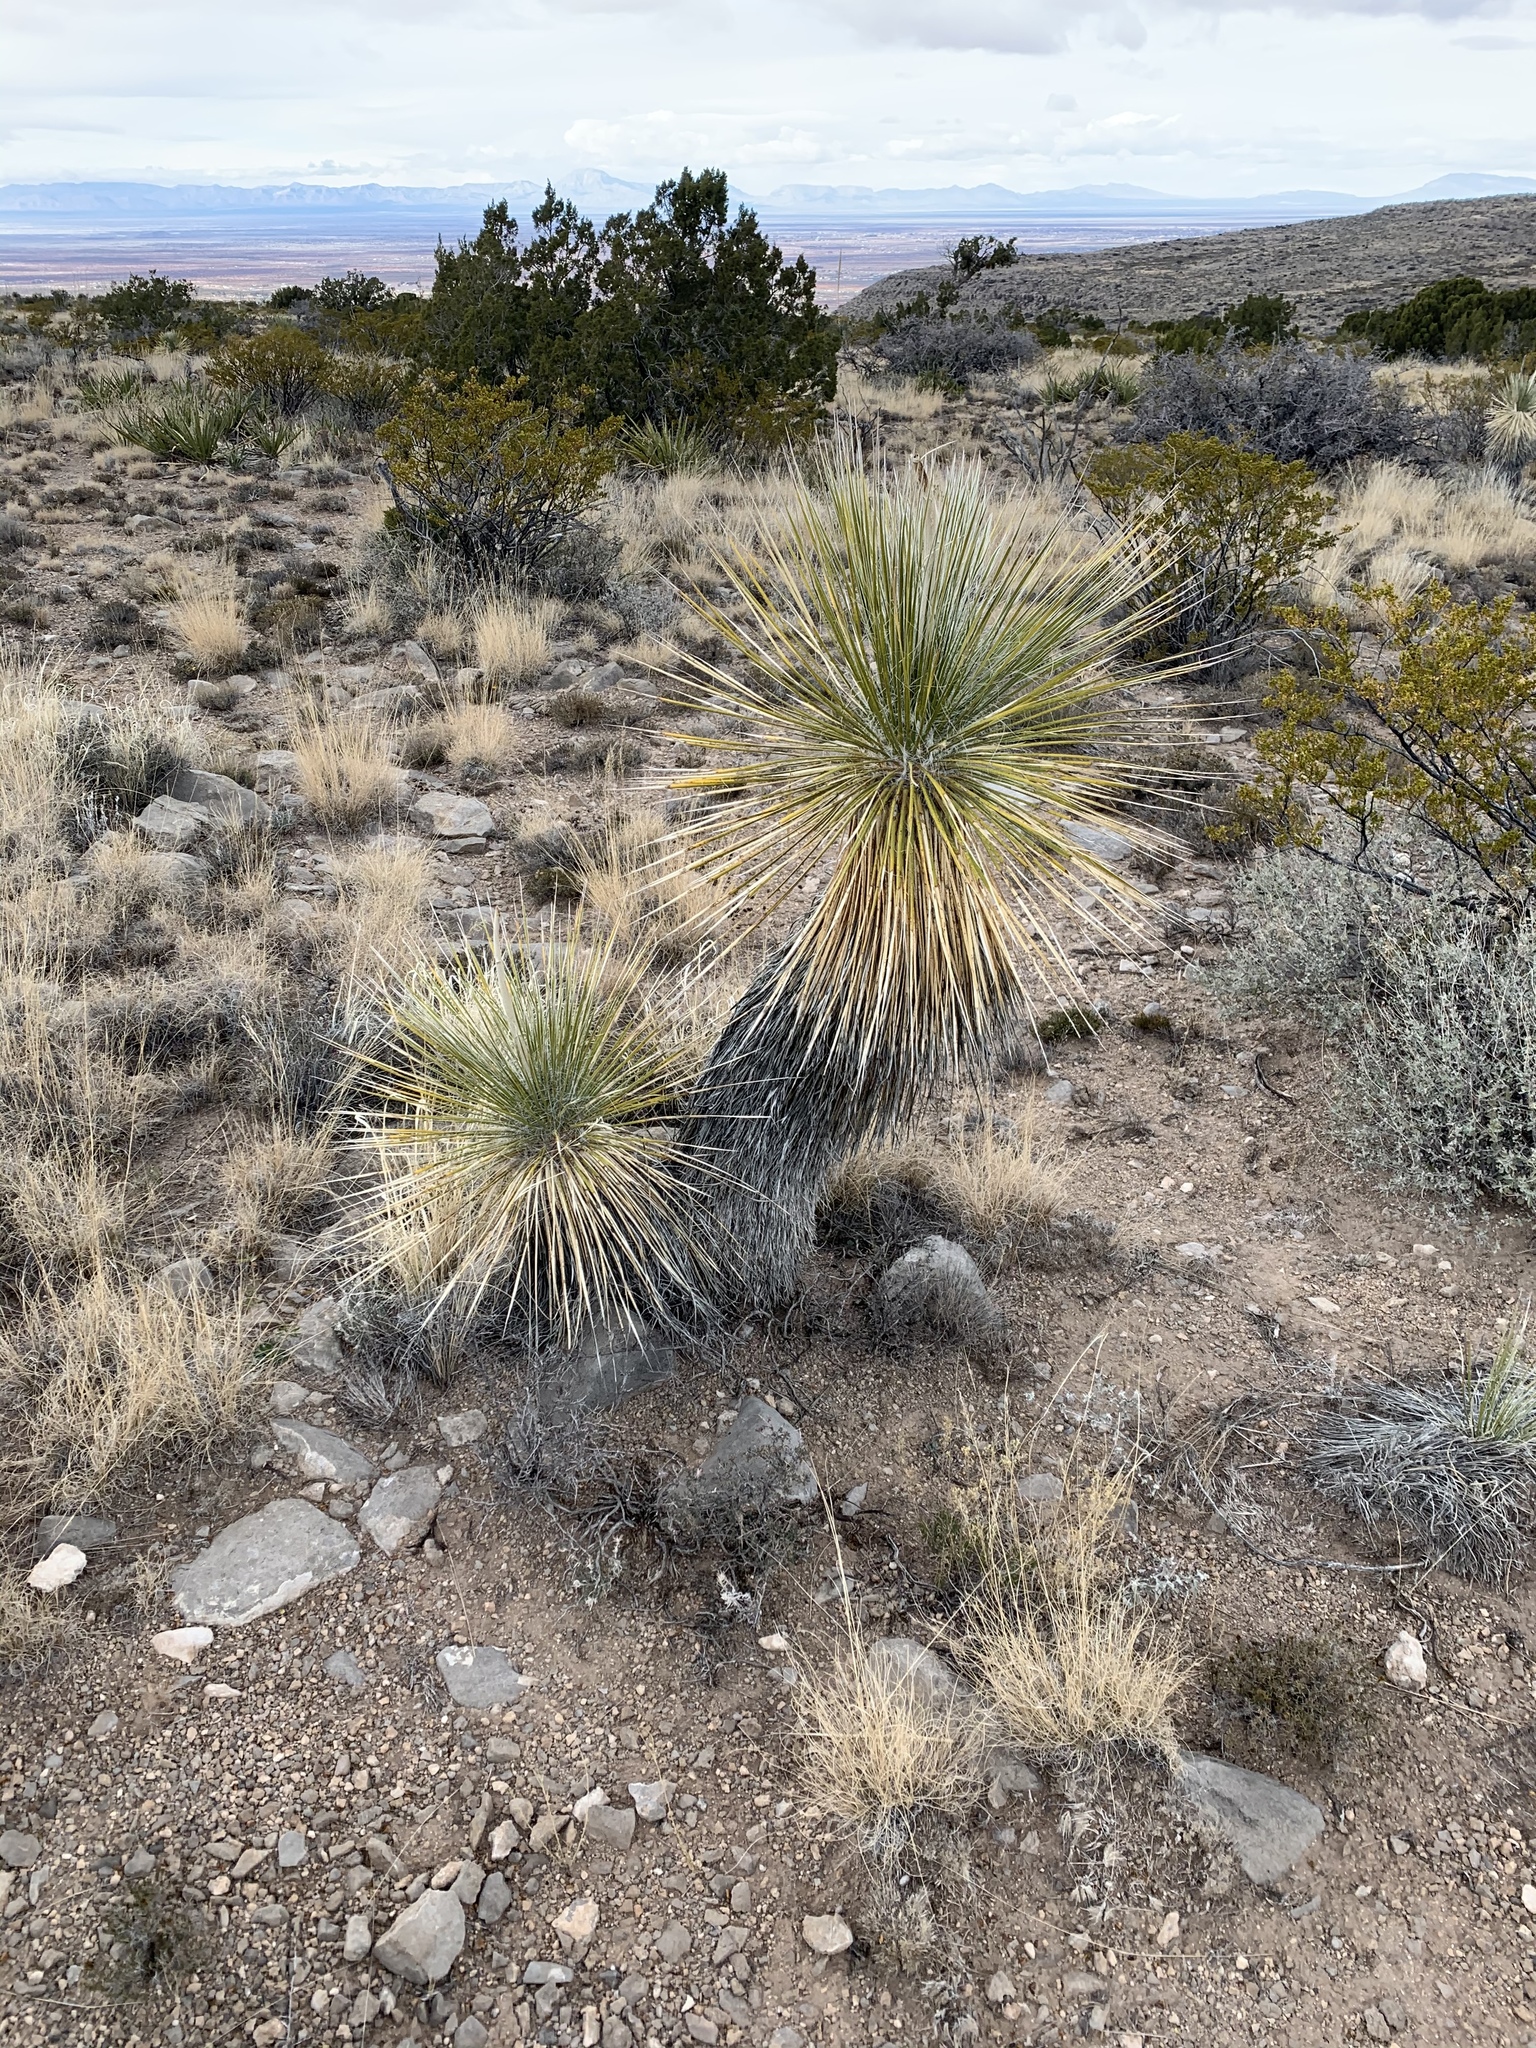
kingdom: Plantae
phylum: Tracheophyta
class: Liliopsida
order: Asparagales
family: Asparagaceae
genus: Yucca
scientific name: Yucca elata
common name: Palmella
